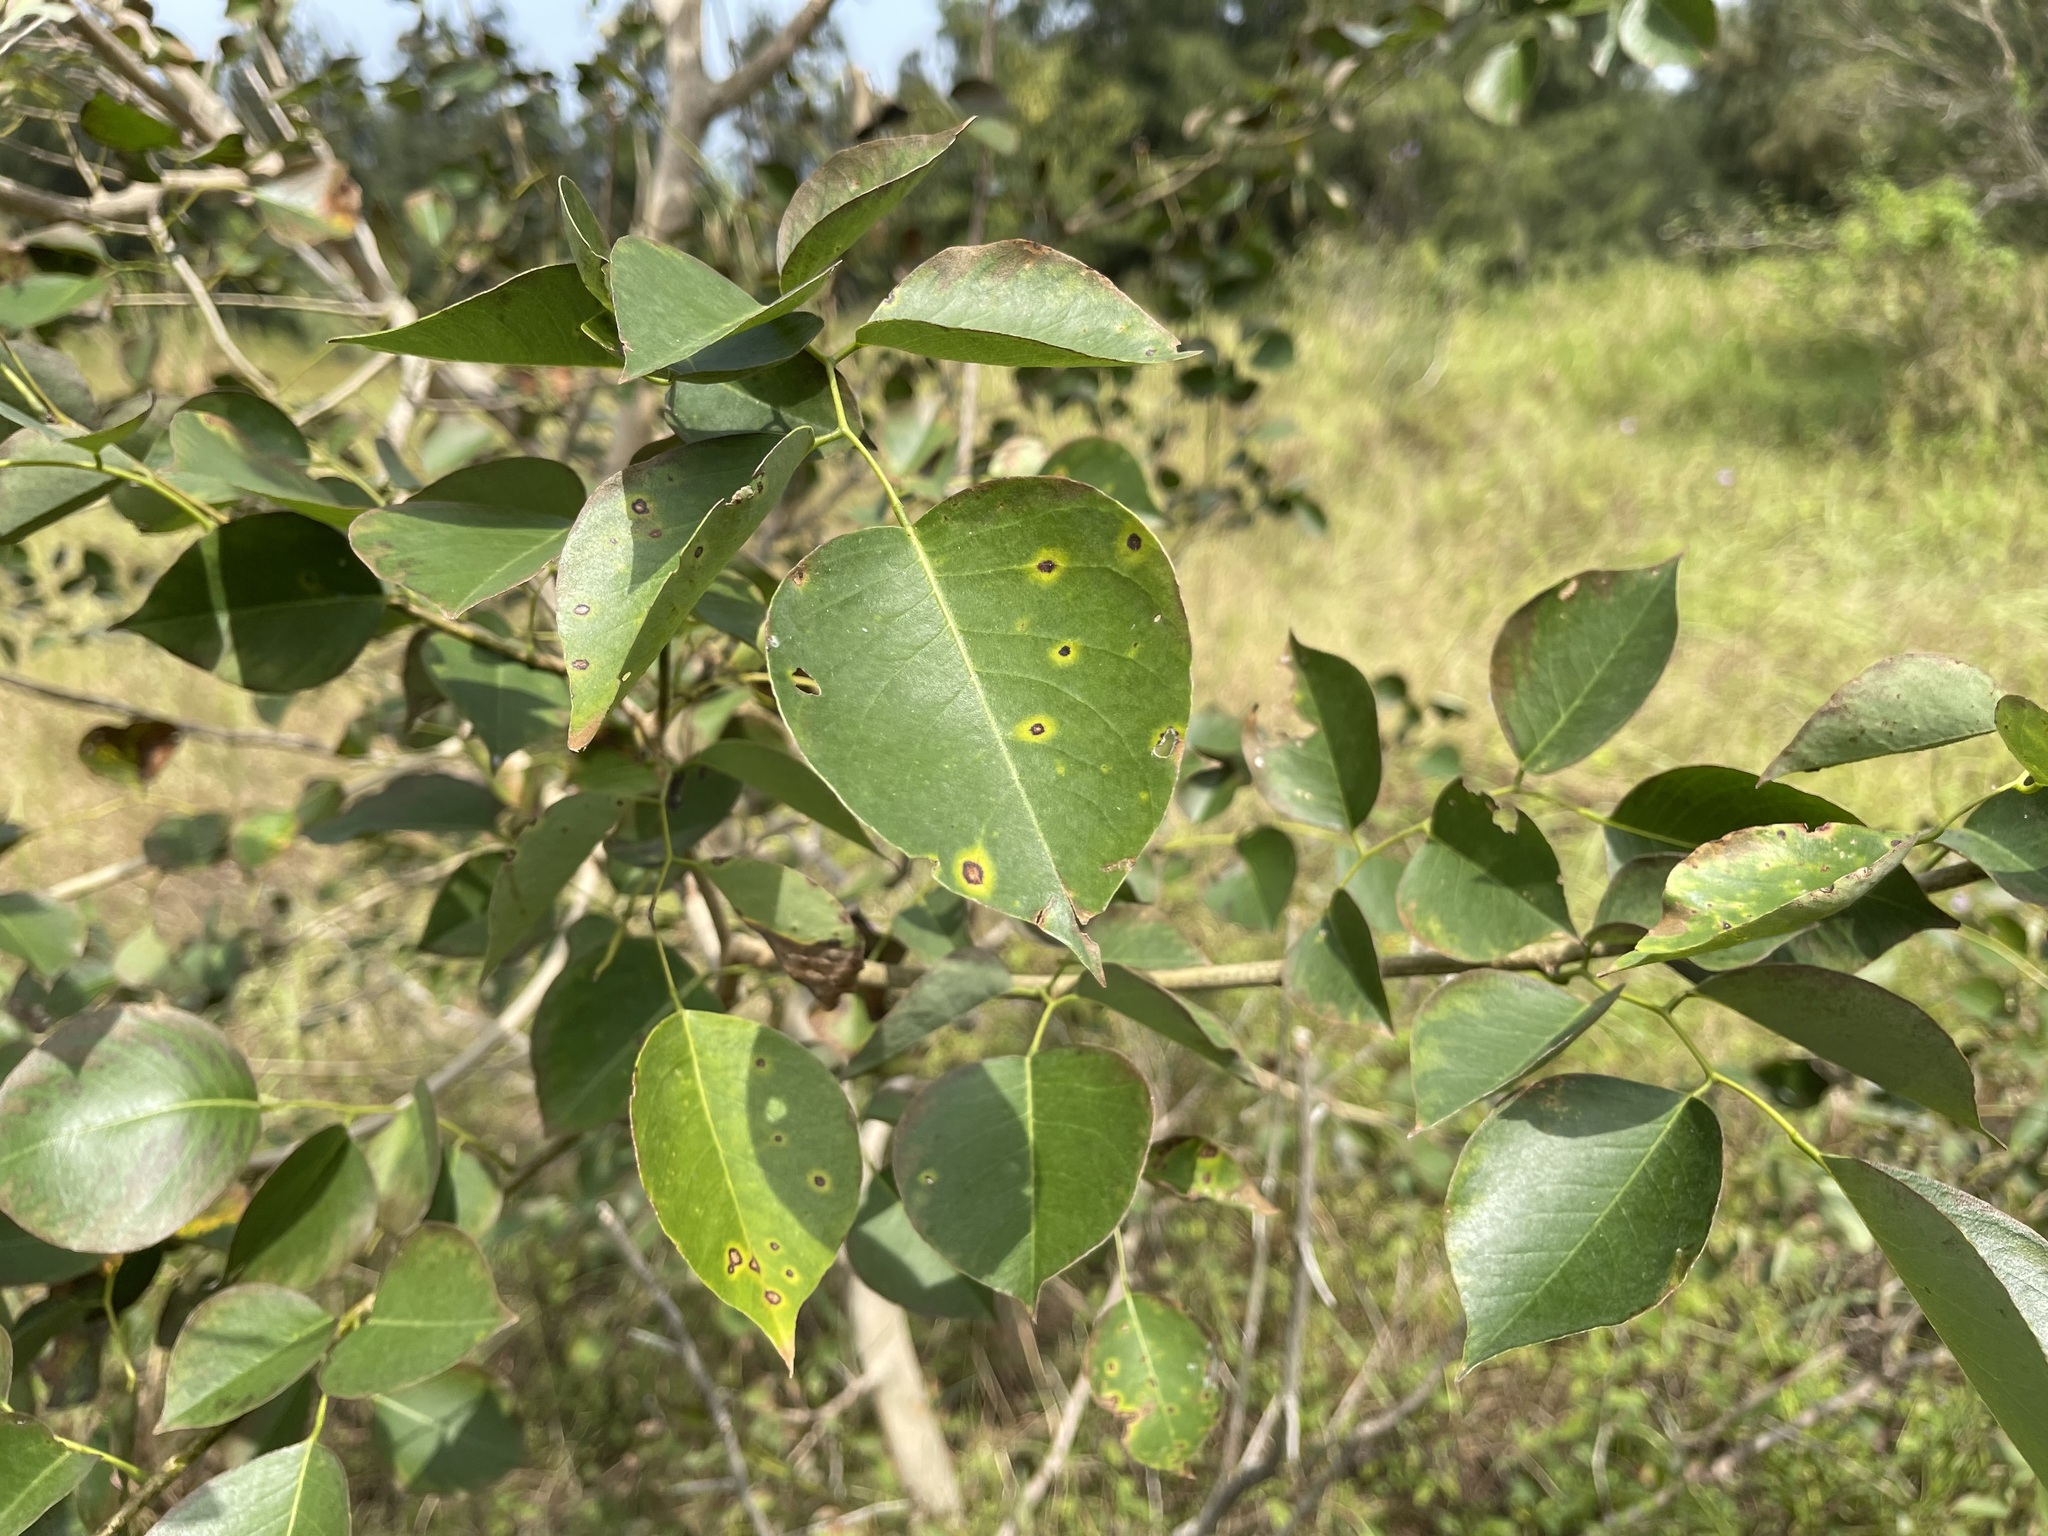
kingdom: Plantae
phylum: Tracheophyta
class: Magnoliopsida
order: Fabales
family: Fabaceae
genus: Dalbergia
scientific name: Dalbergia sissoo
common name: Indian rosewood
